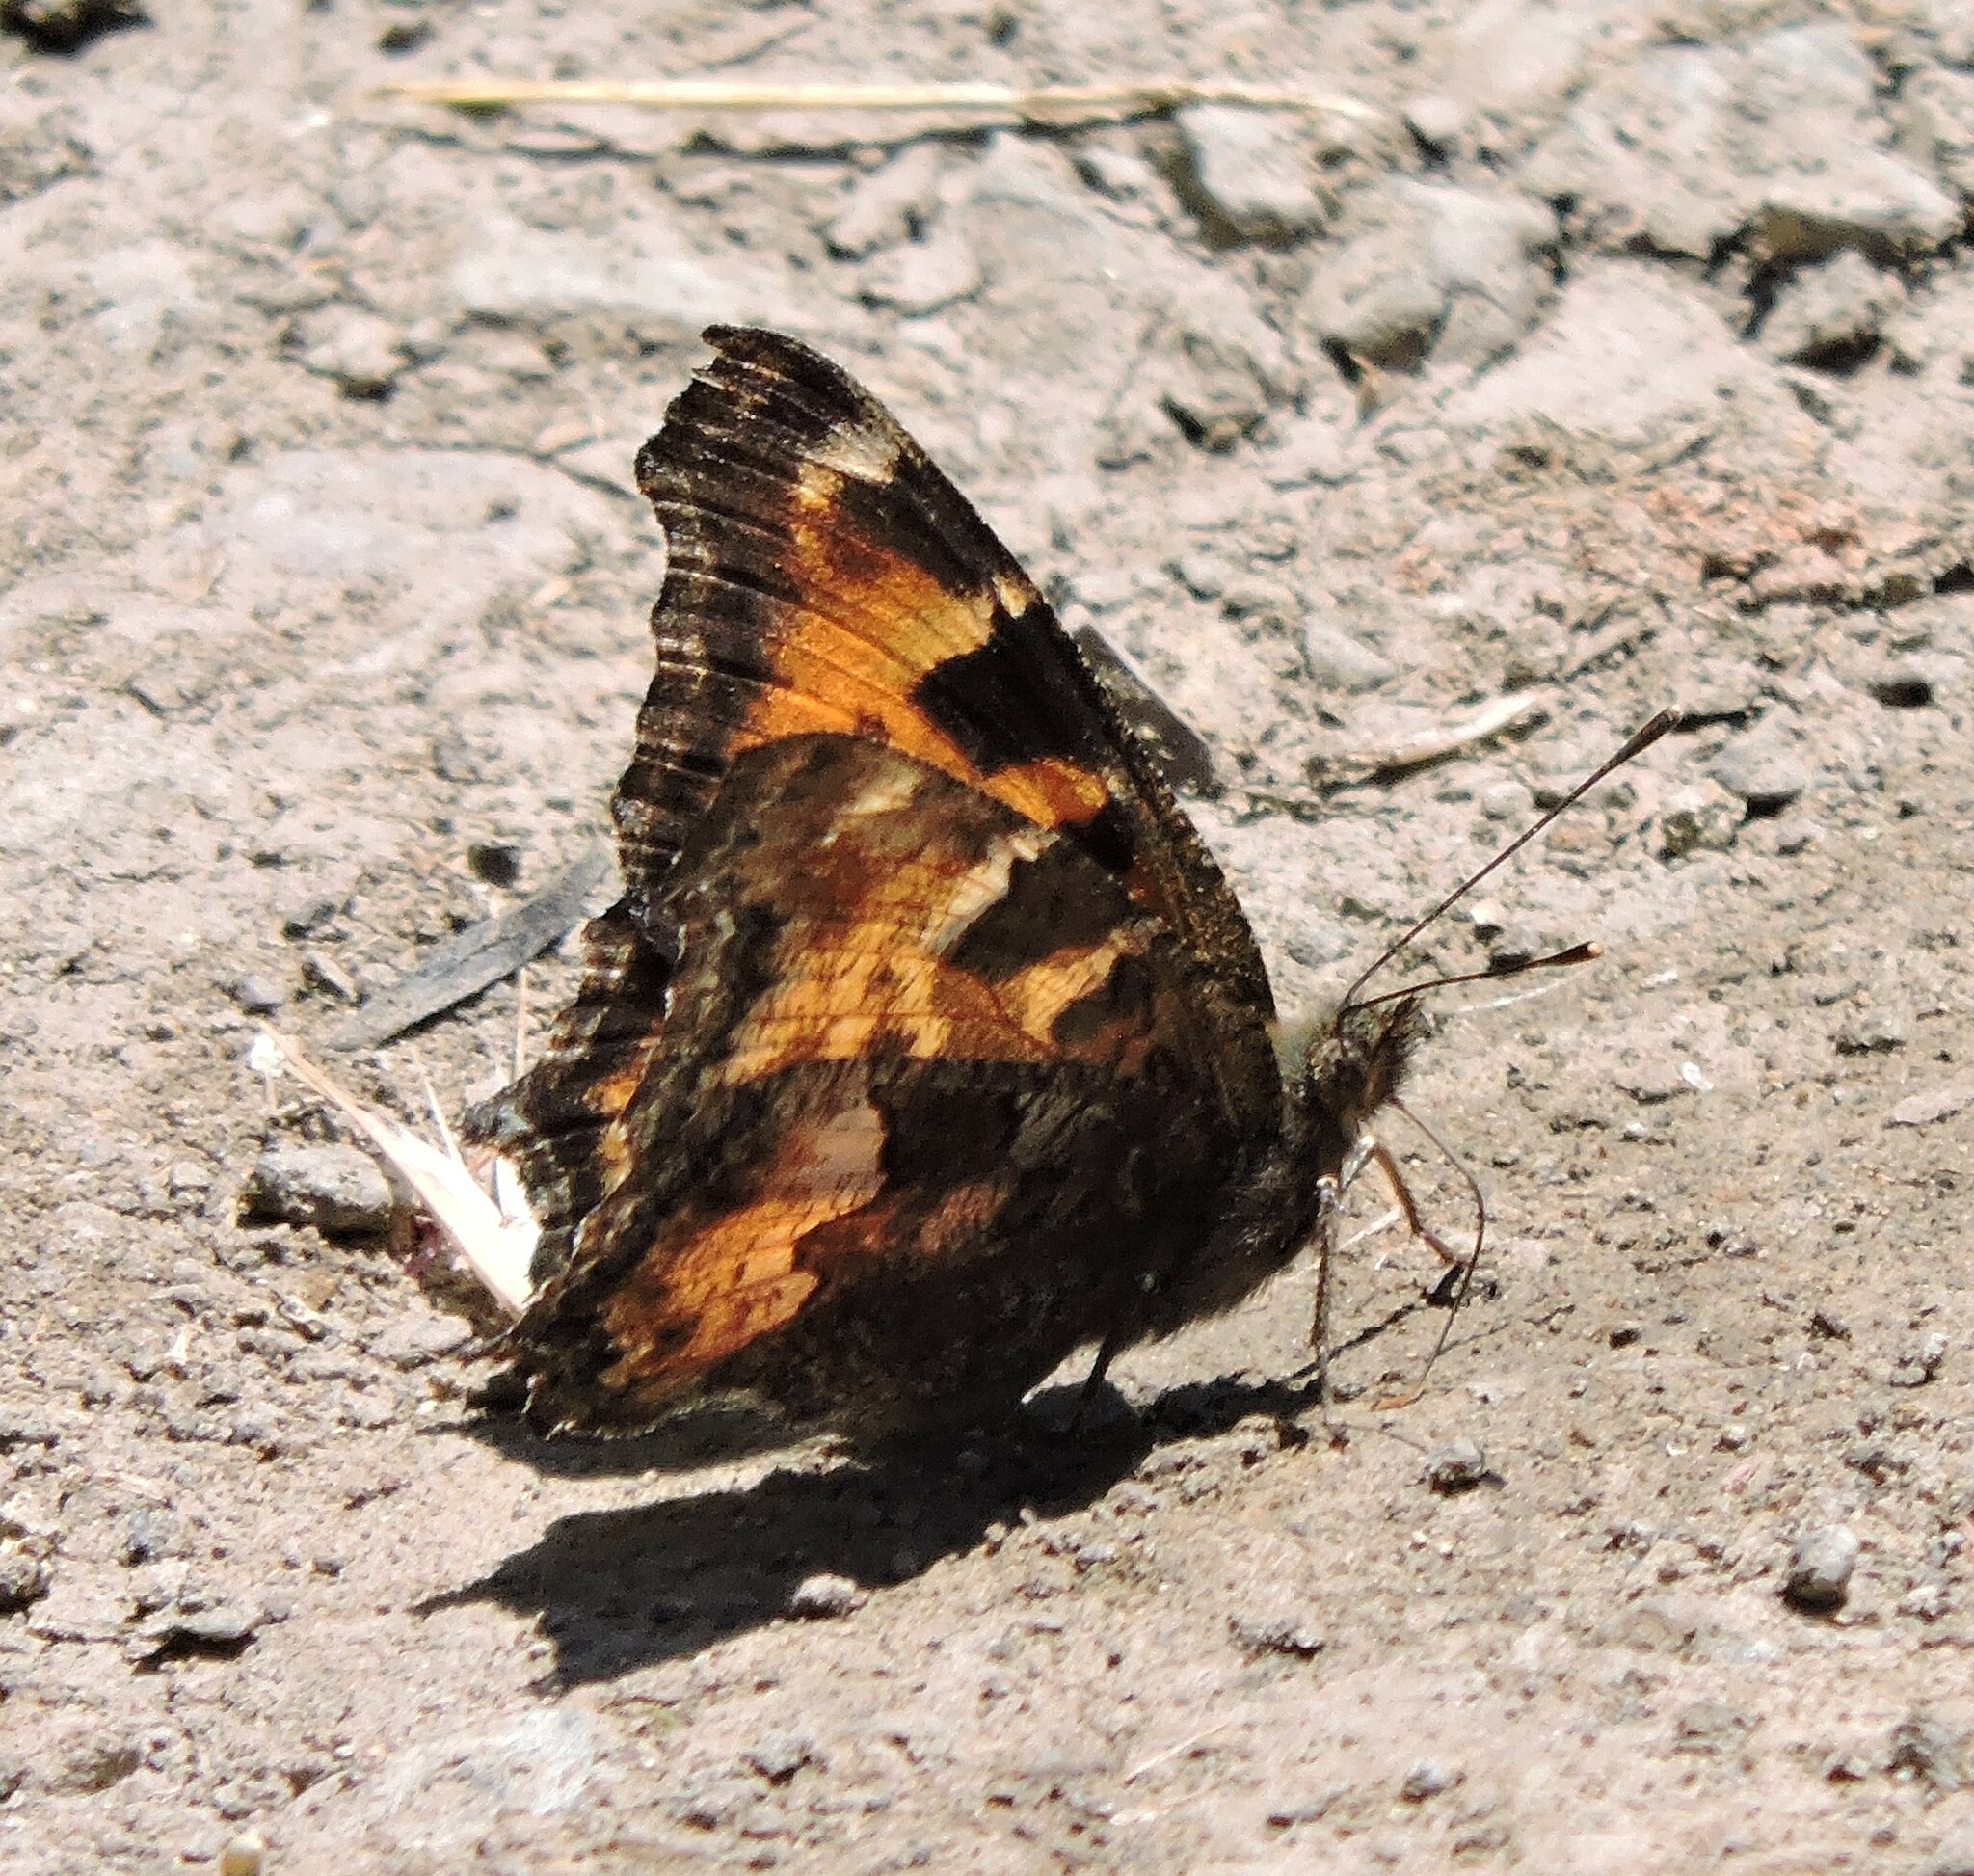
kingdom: Animalia
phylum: Arthropoda
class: Insecta
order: Lepidoptera
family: Nymphalidae
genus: Nymphalis
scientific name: Nymphalis californica
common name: California tortoiseshell
